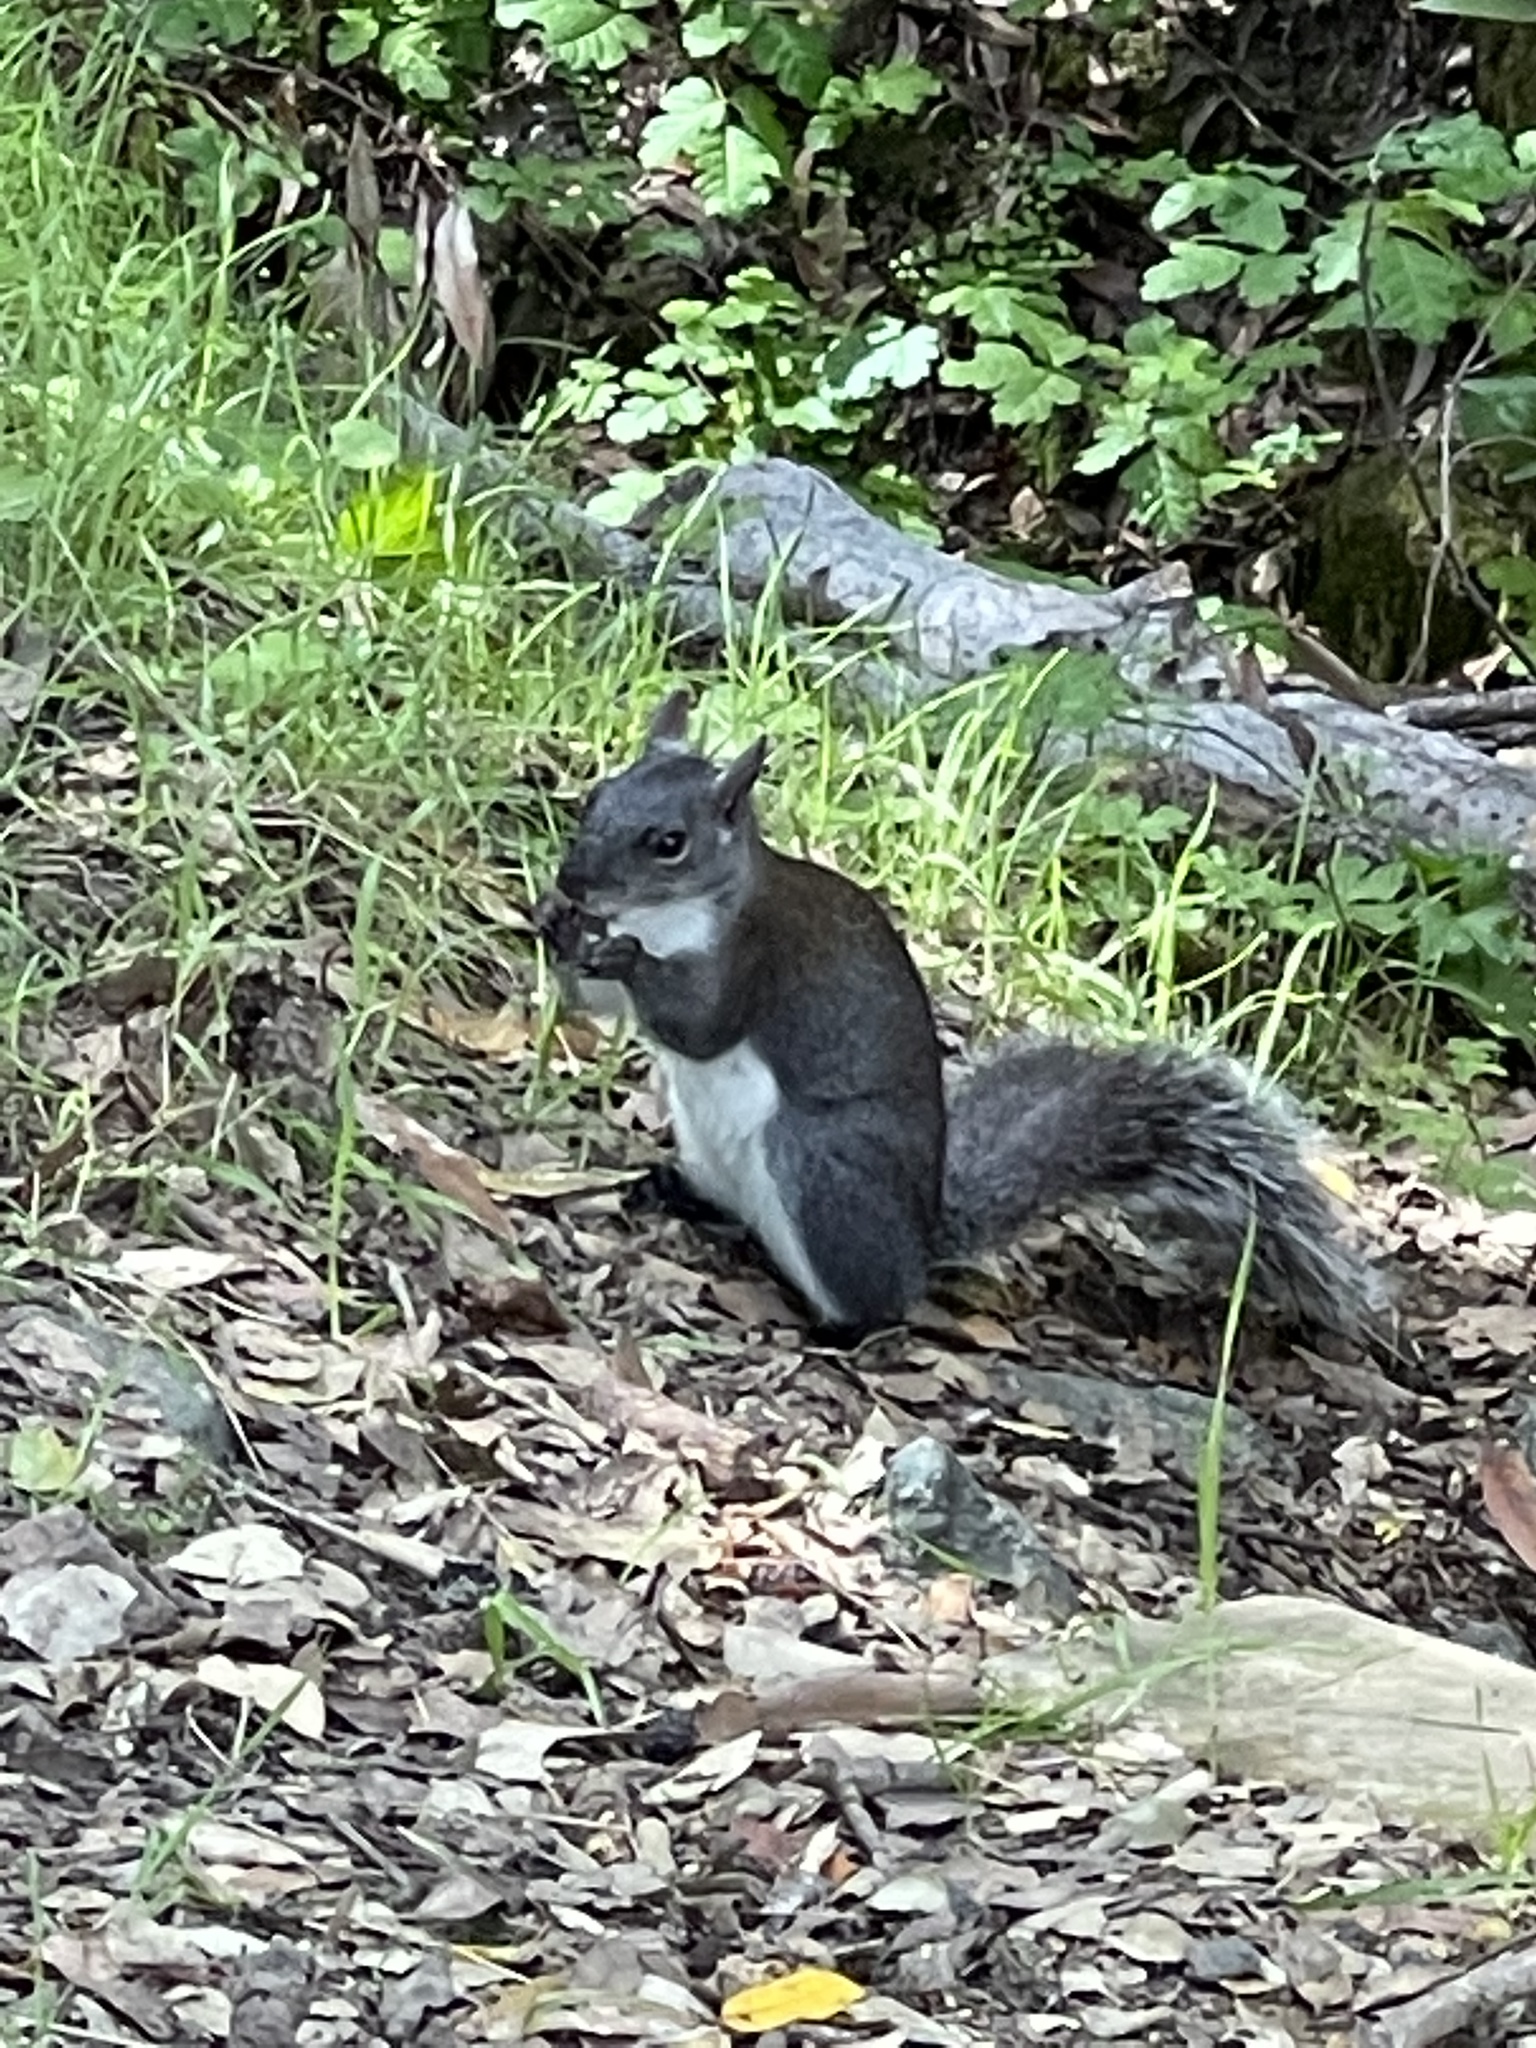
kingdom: Animalia
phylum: Chordata
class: Mammalia
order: Rodentia
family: Sciuridae
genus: Sciurus
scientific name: Sciurus griseus
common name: Western gray squirrel
